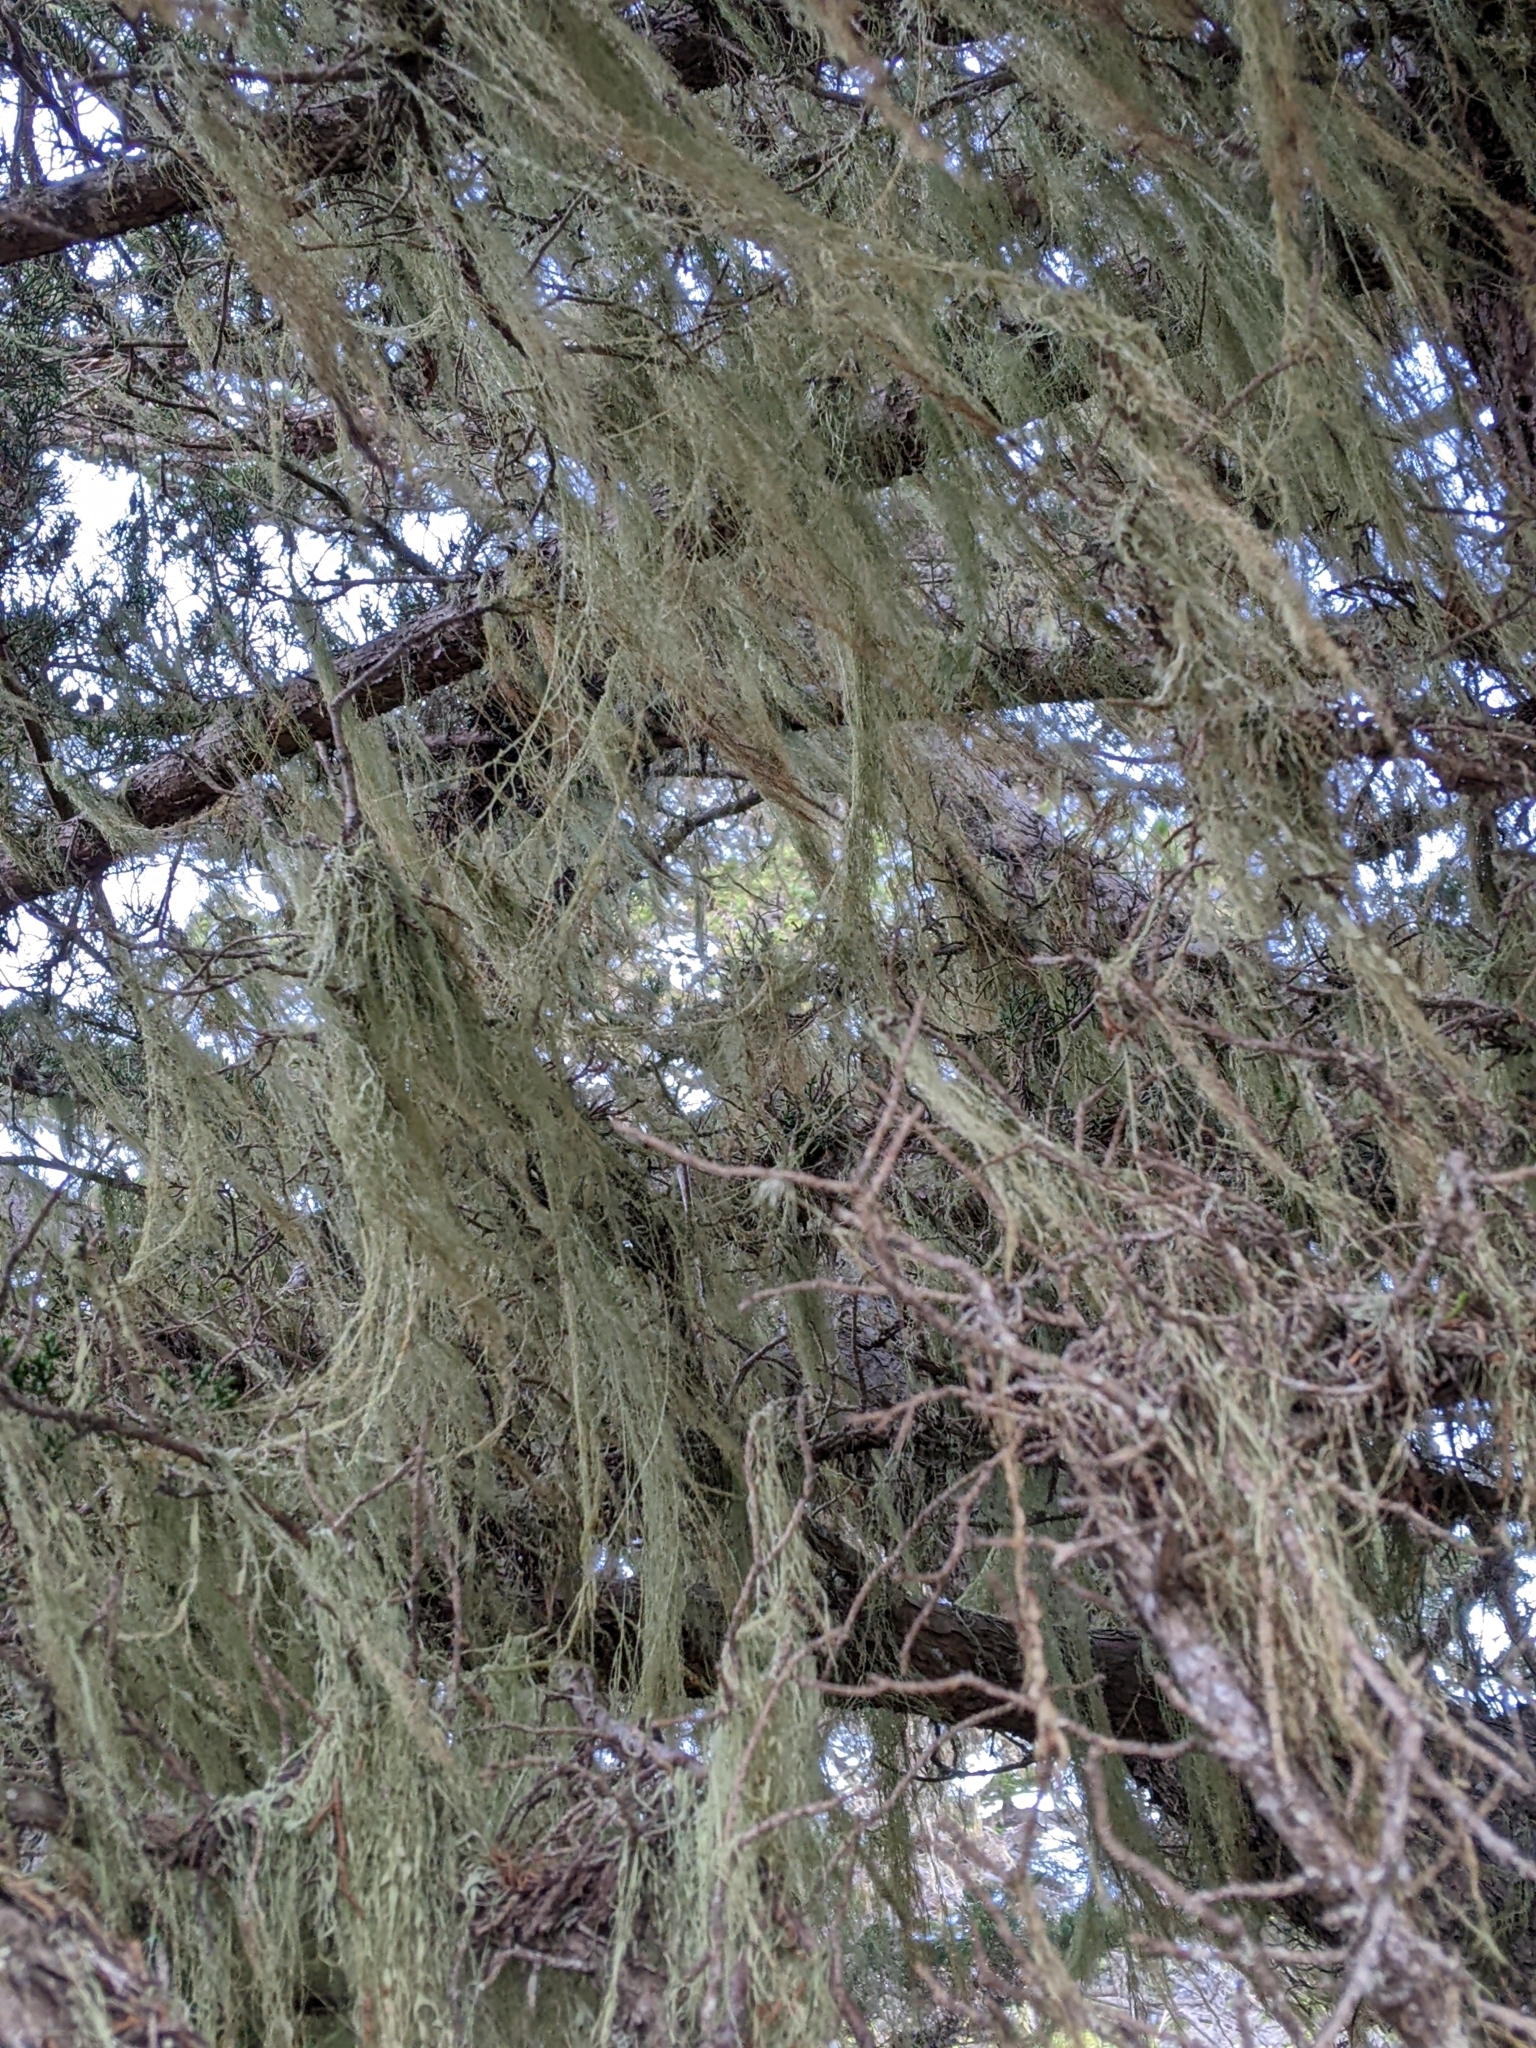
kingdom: Fungi
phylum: Ascomycota
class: Lecanoromycetes
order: Lecanorales
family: Ramalinaceae
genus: Ramalina
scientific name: Ramalina menziesii
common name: Lace lichen
